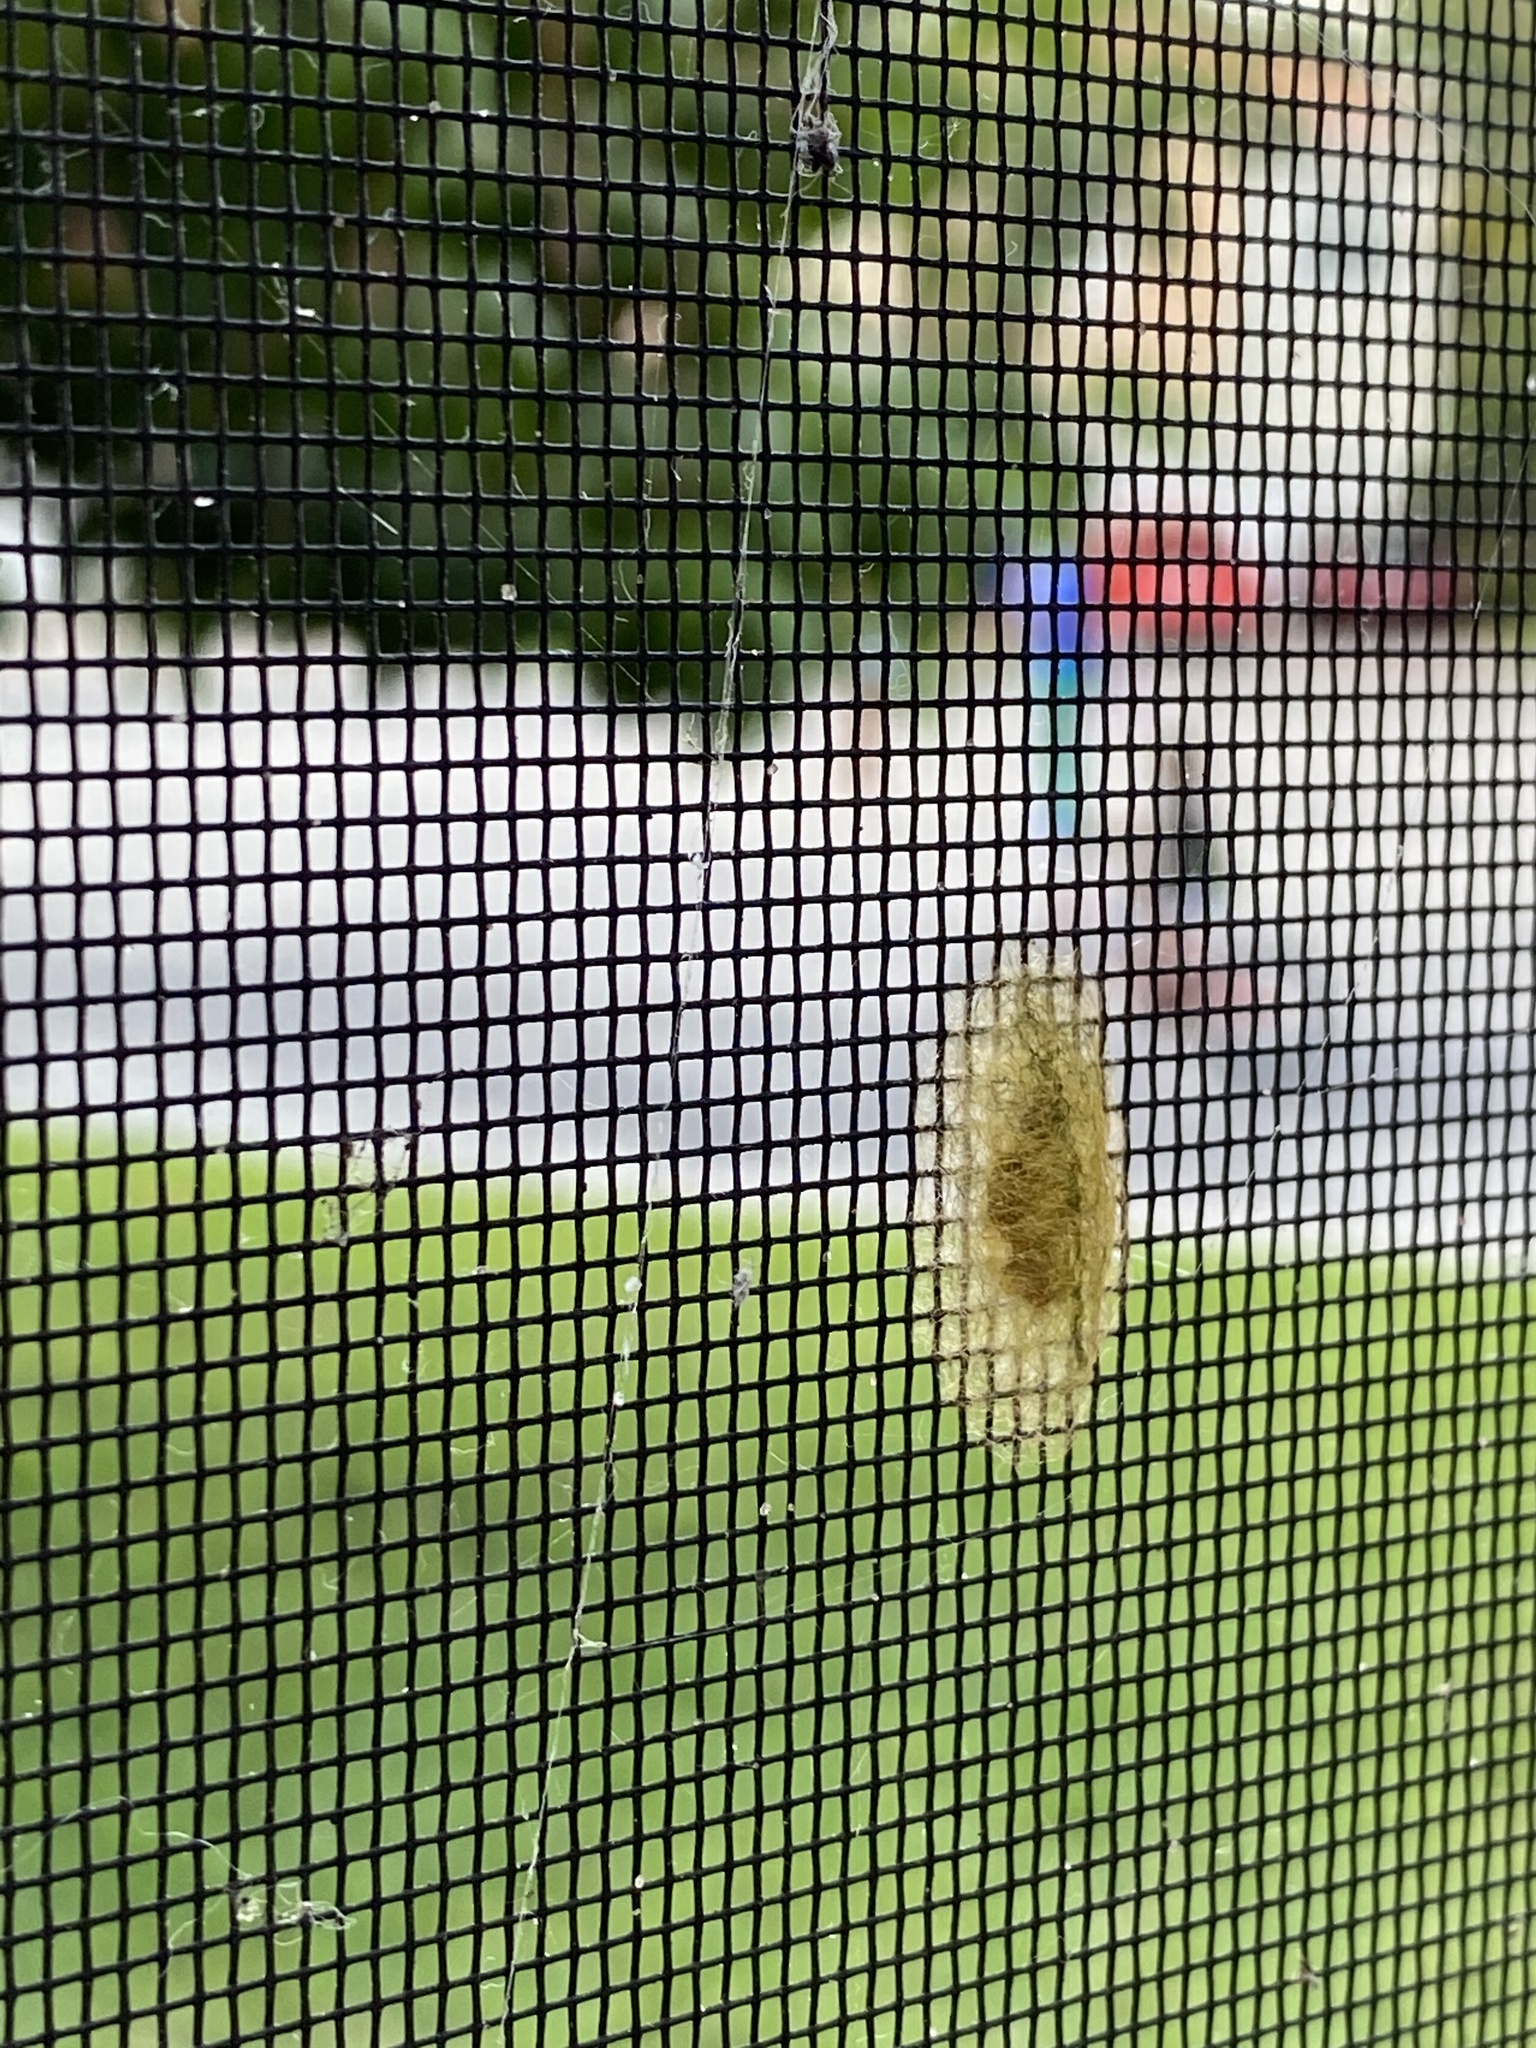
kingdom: Animalia
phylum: Arthropoda
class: Arachnida
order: Araneae
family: Araneidae
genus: Gasteracantha
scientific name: Gasteracantha cancriformis
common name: Orb weavers
